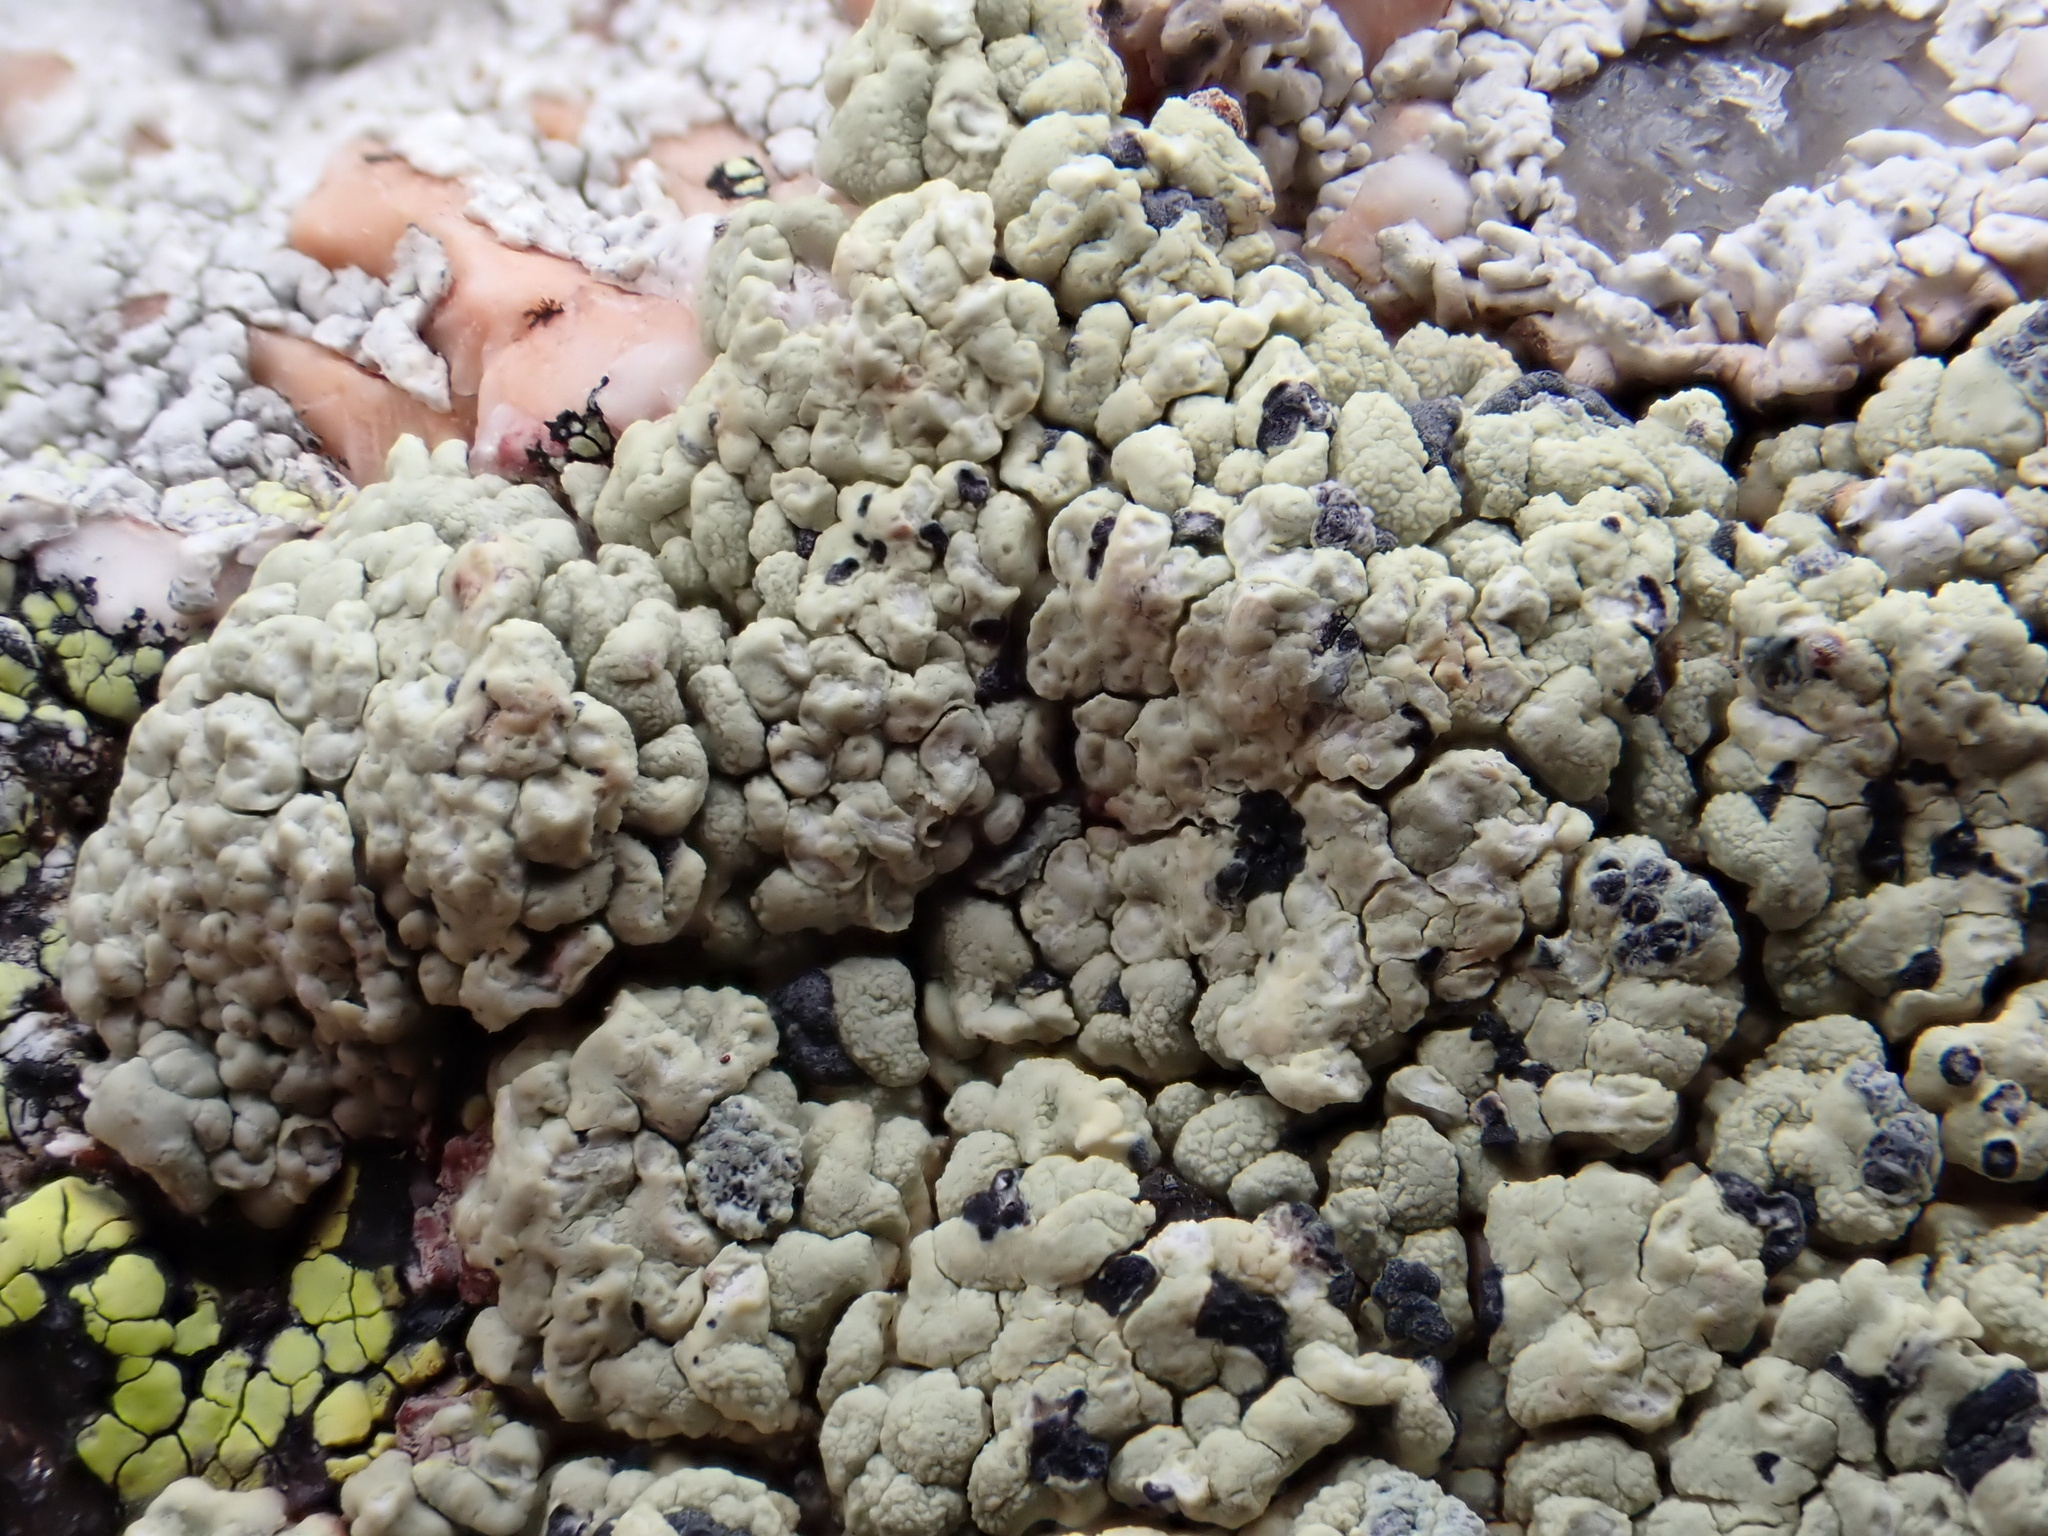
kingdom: Fungi
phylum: Ascomycota
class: Lecanoromycetes
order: Umbilicariales
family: Ophioparmaceae
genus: Ophioparma
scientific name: Ophioparma ventosa
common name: Blood-spot
